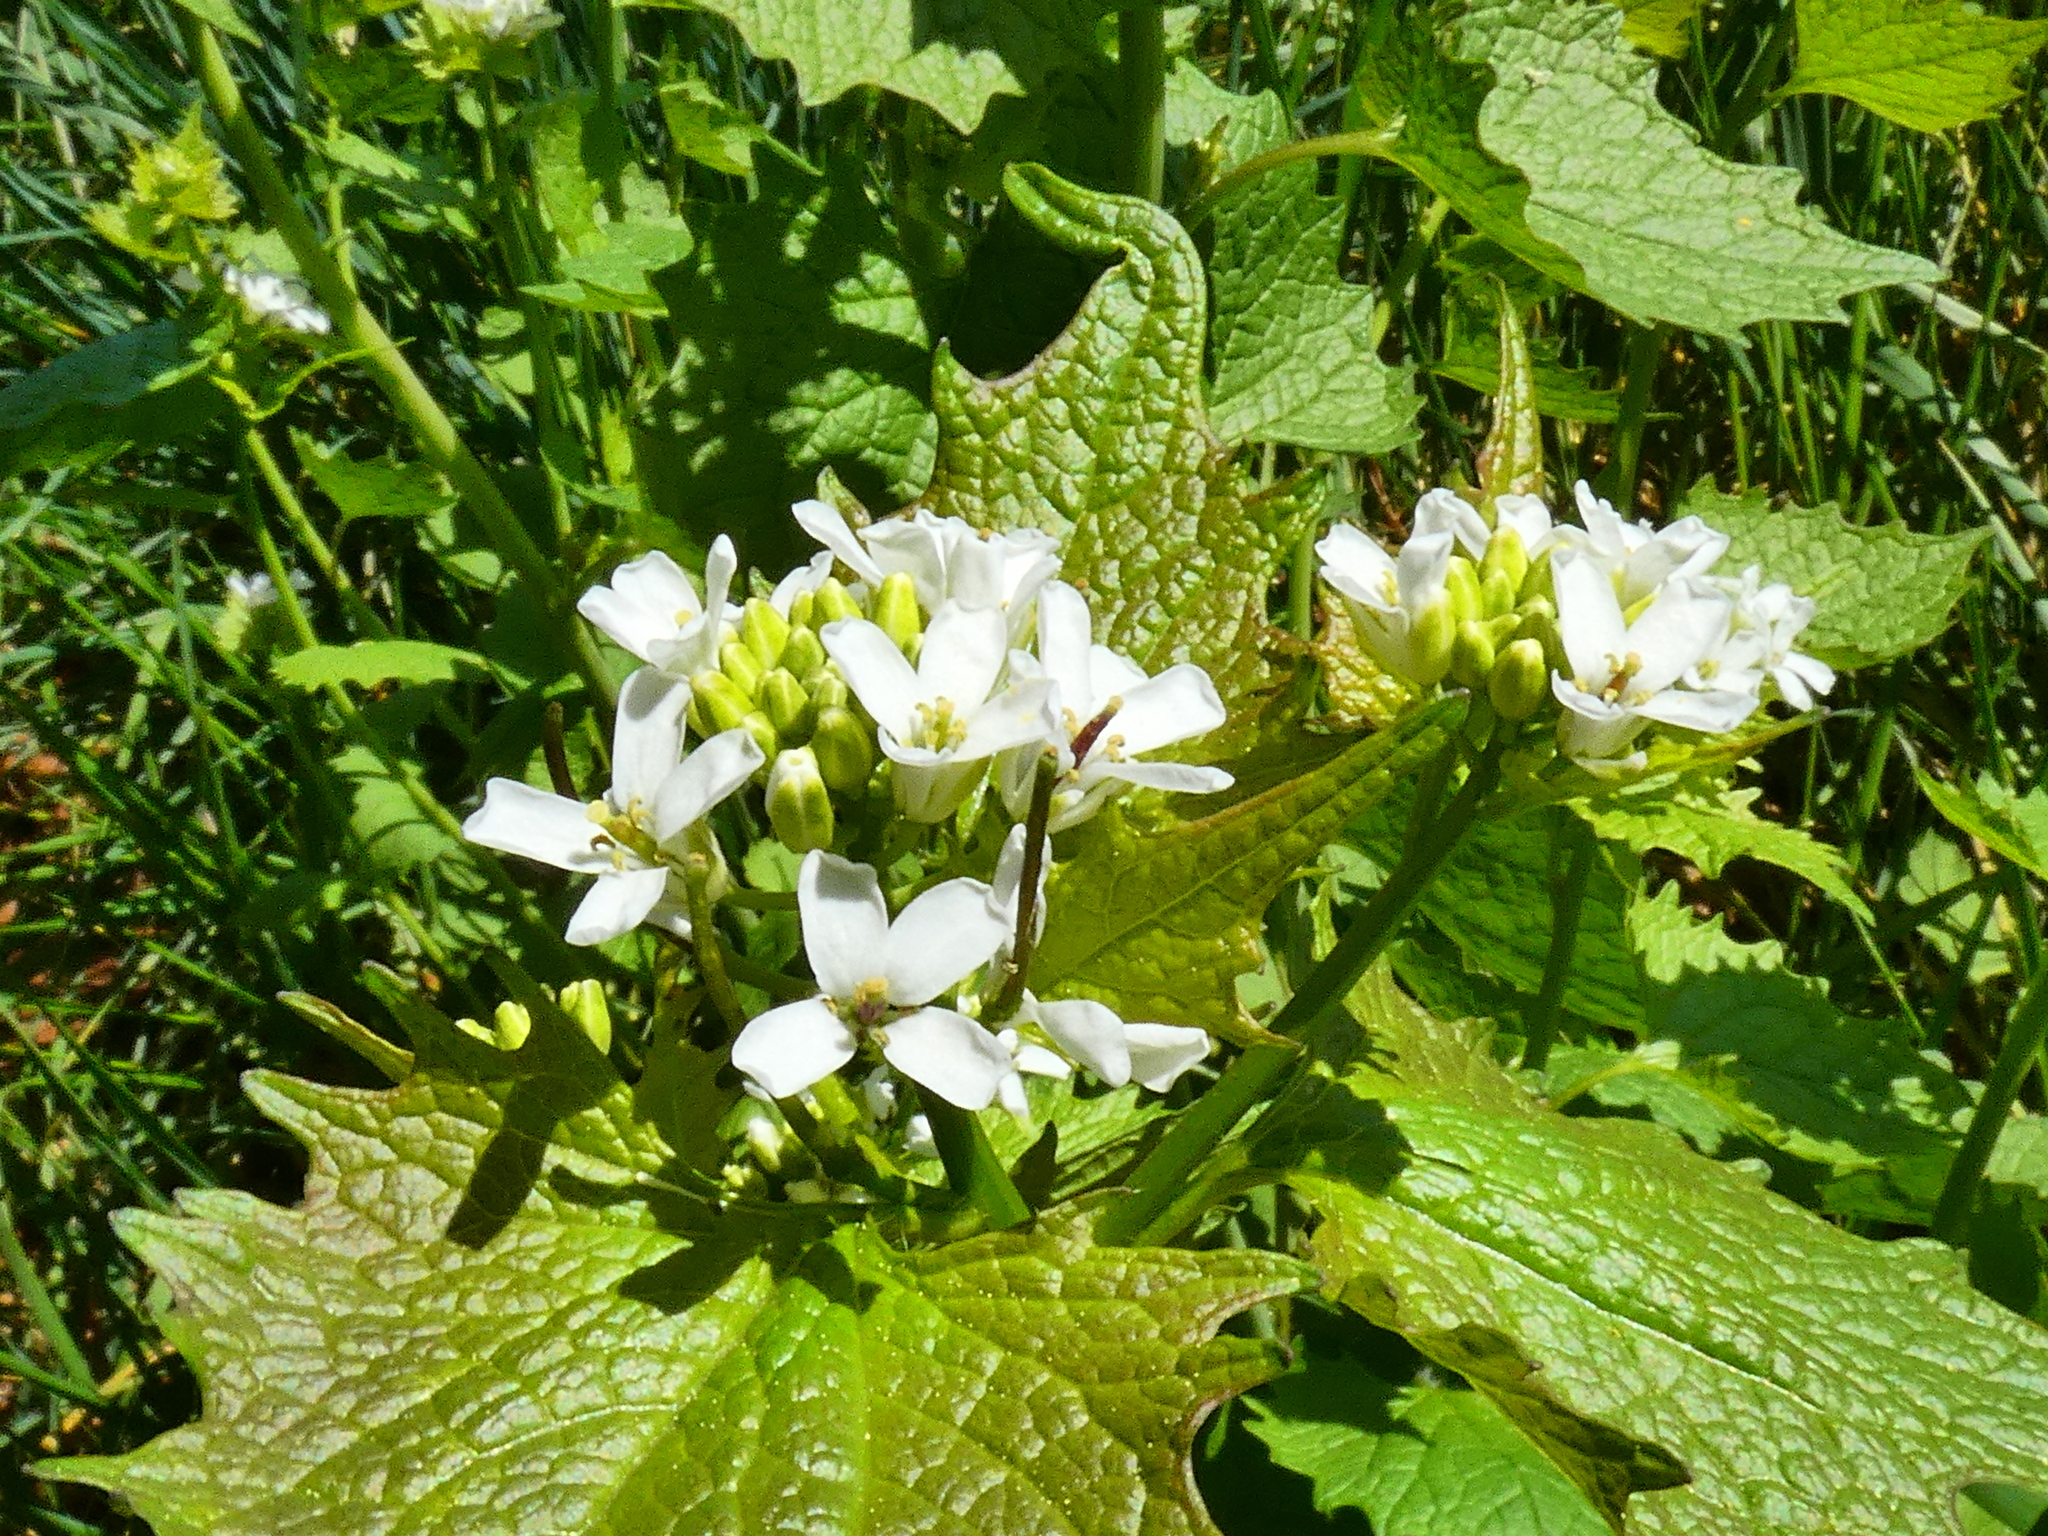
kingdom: Plantae
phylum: Tracheophyta
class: Magnoliopsida
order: Brassicales
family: Brassicaceae
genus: Alliaria
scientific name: Alliaria petiolata
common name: Garlic mustard
